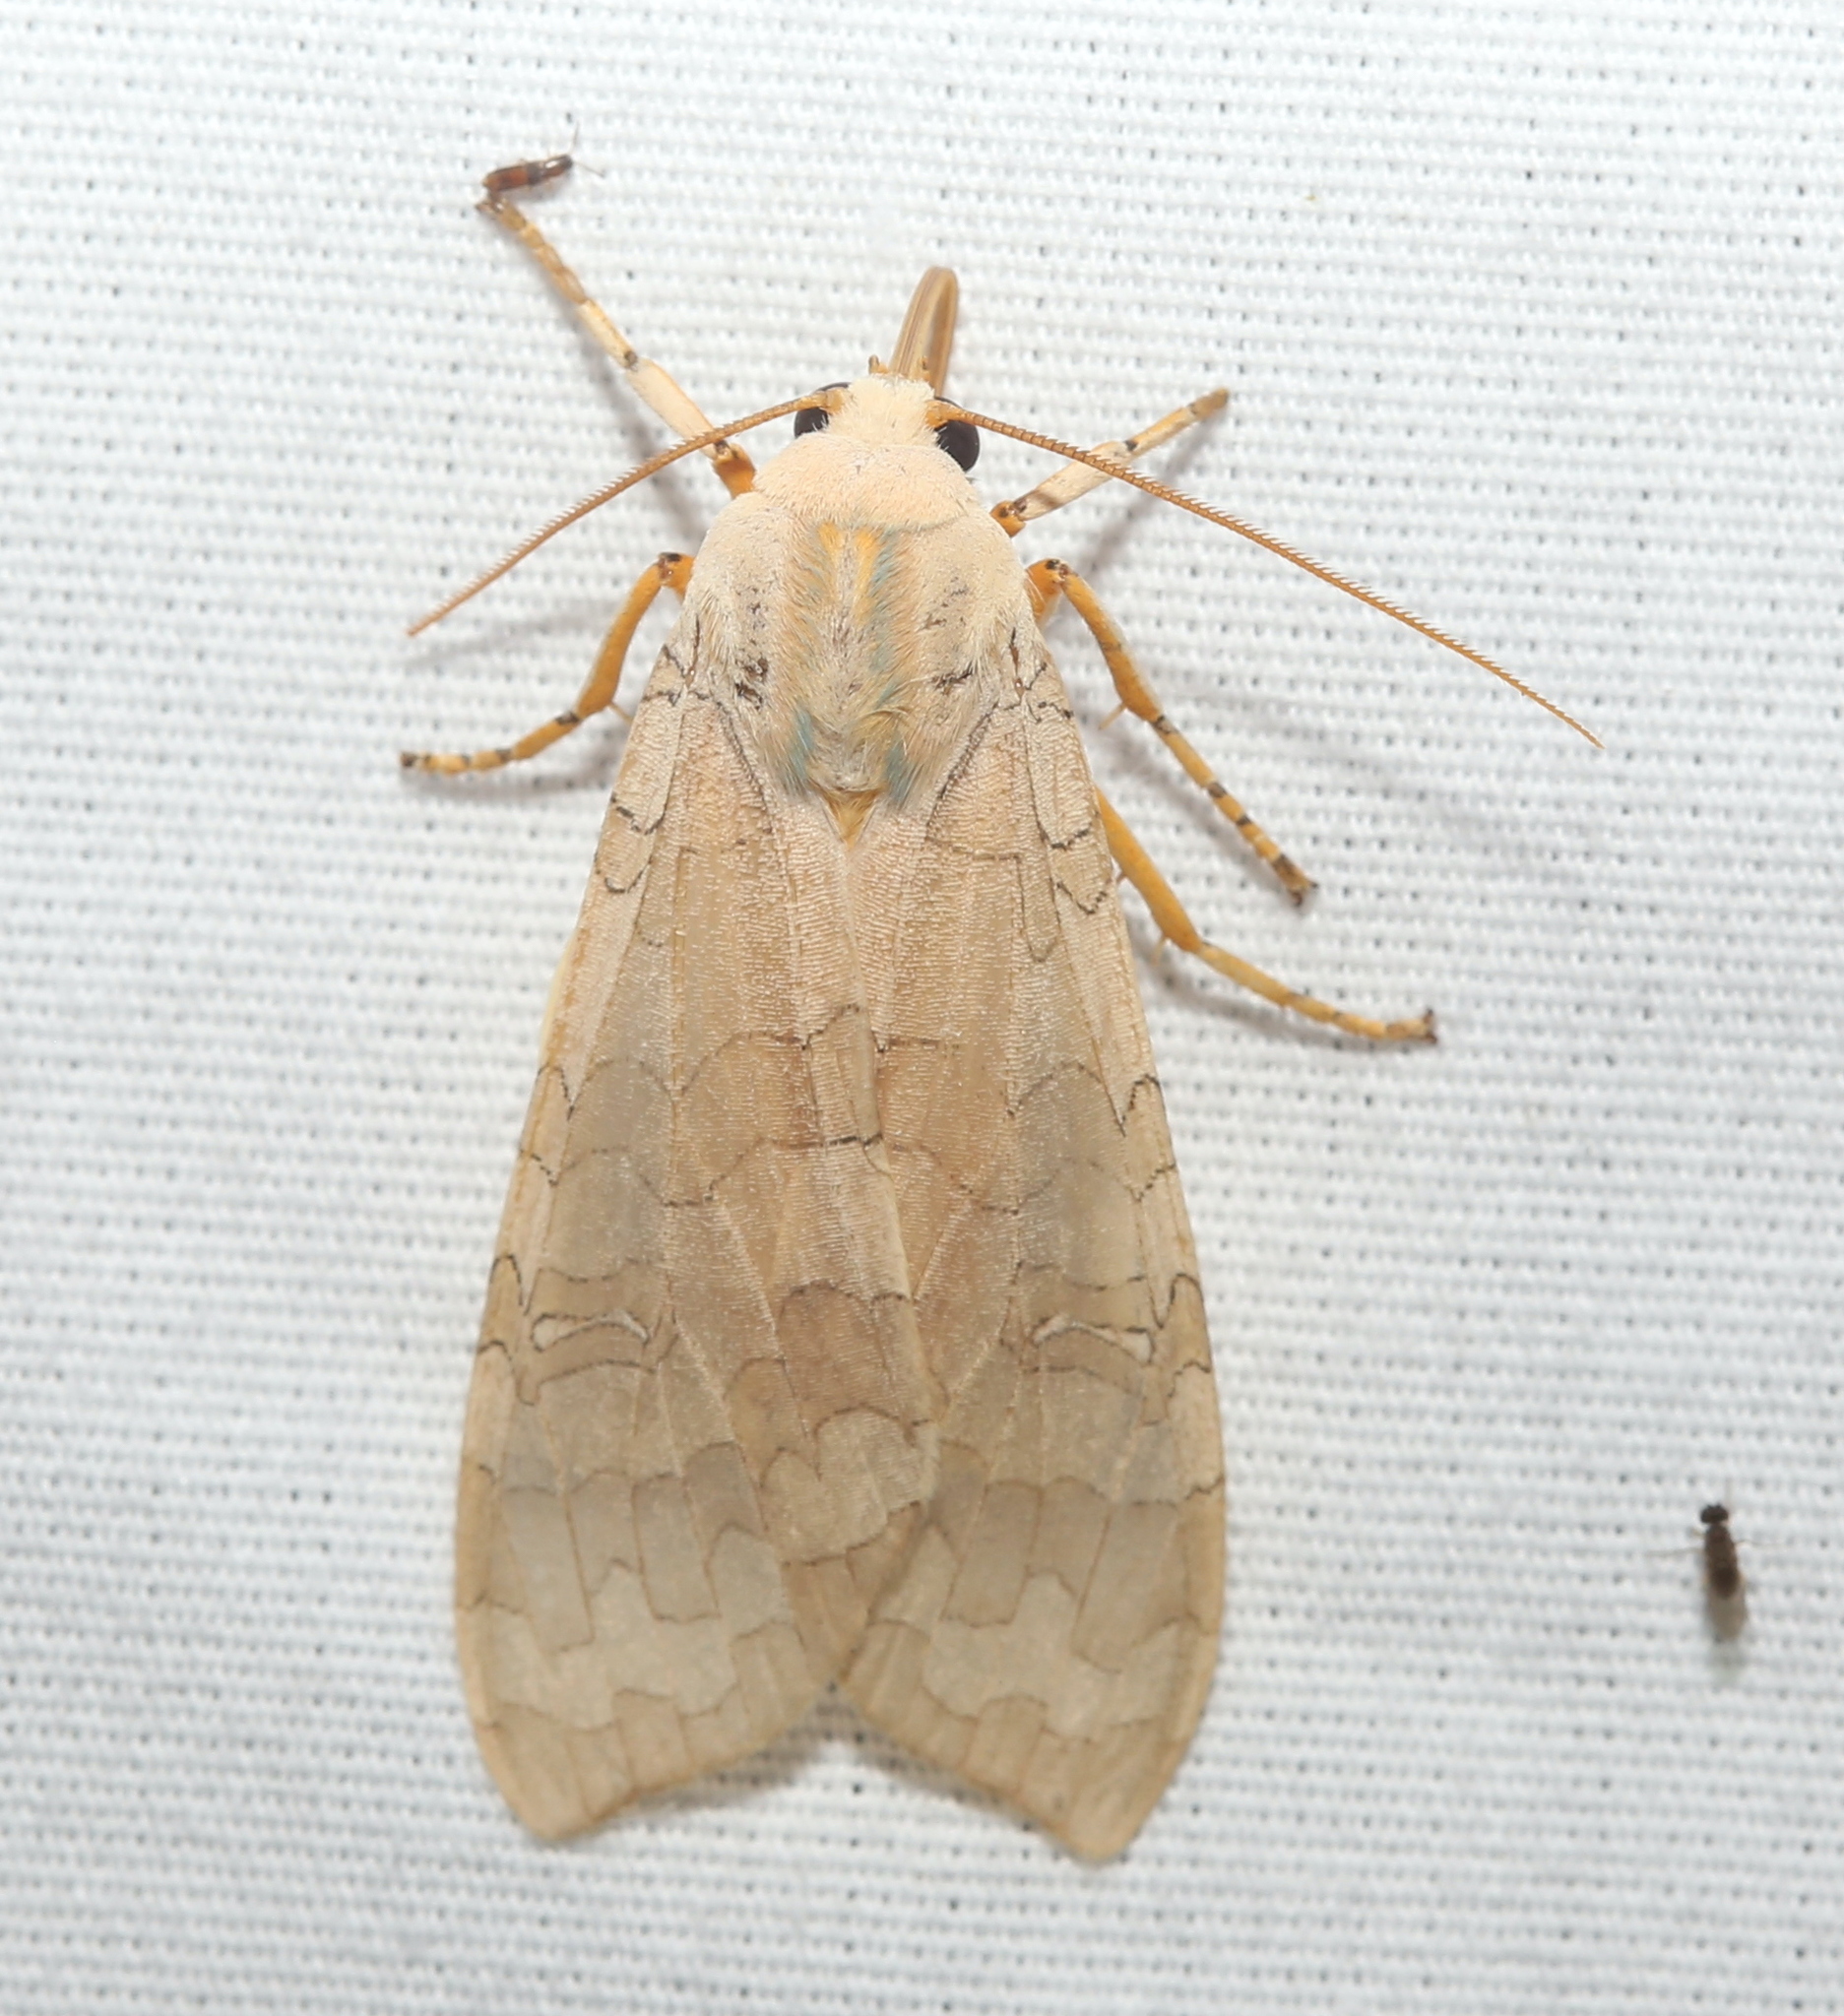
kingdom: Animalia
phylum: Arthropoda
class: Insecta
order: Lepidoptera
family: Erebidae
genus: Halysidota
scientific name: Halysidota
